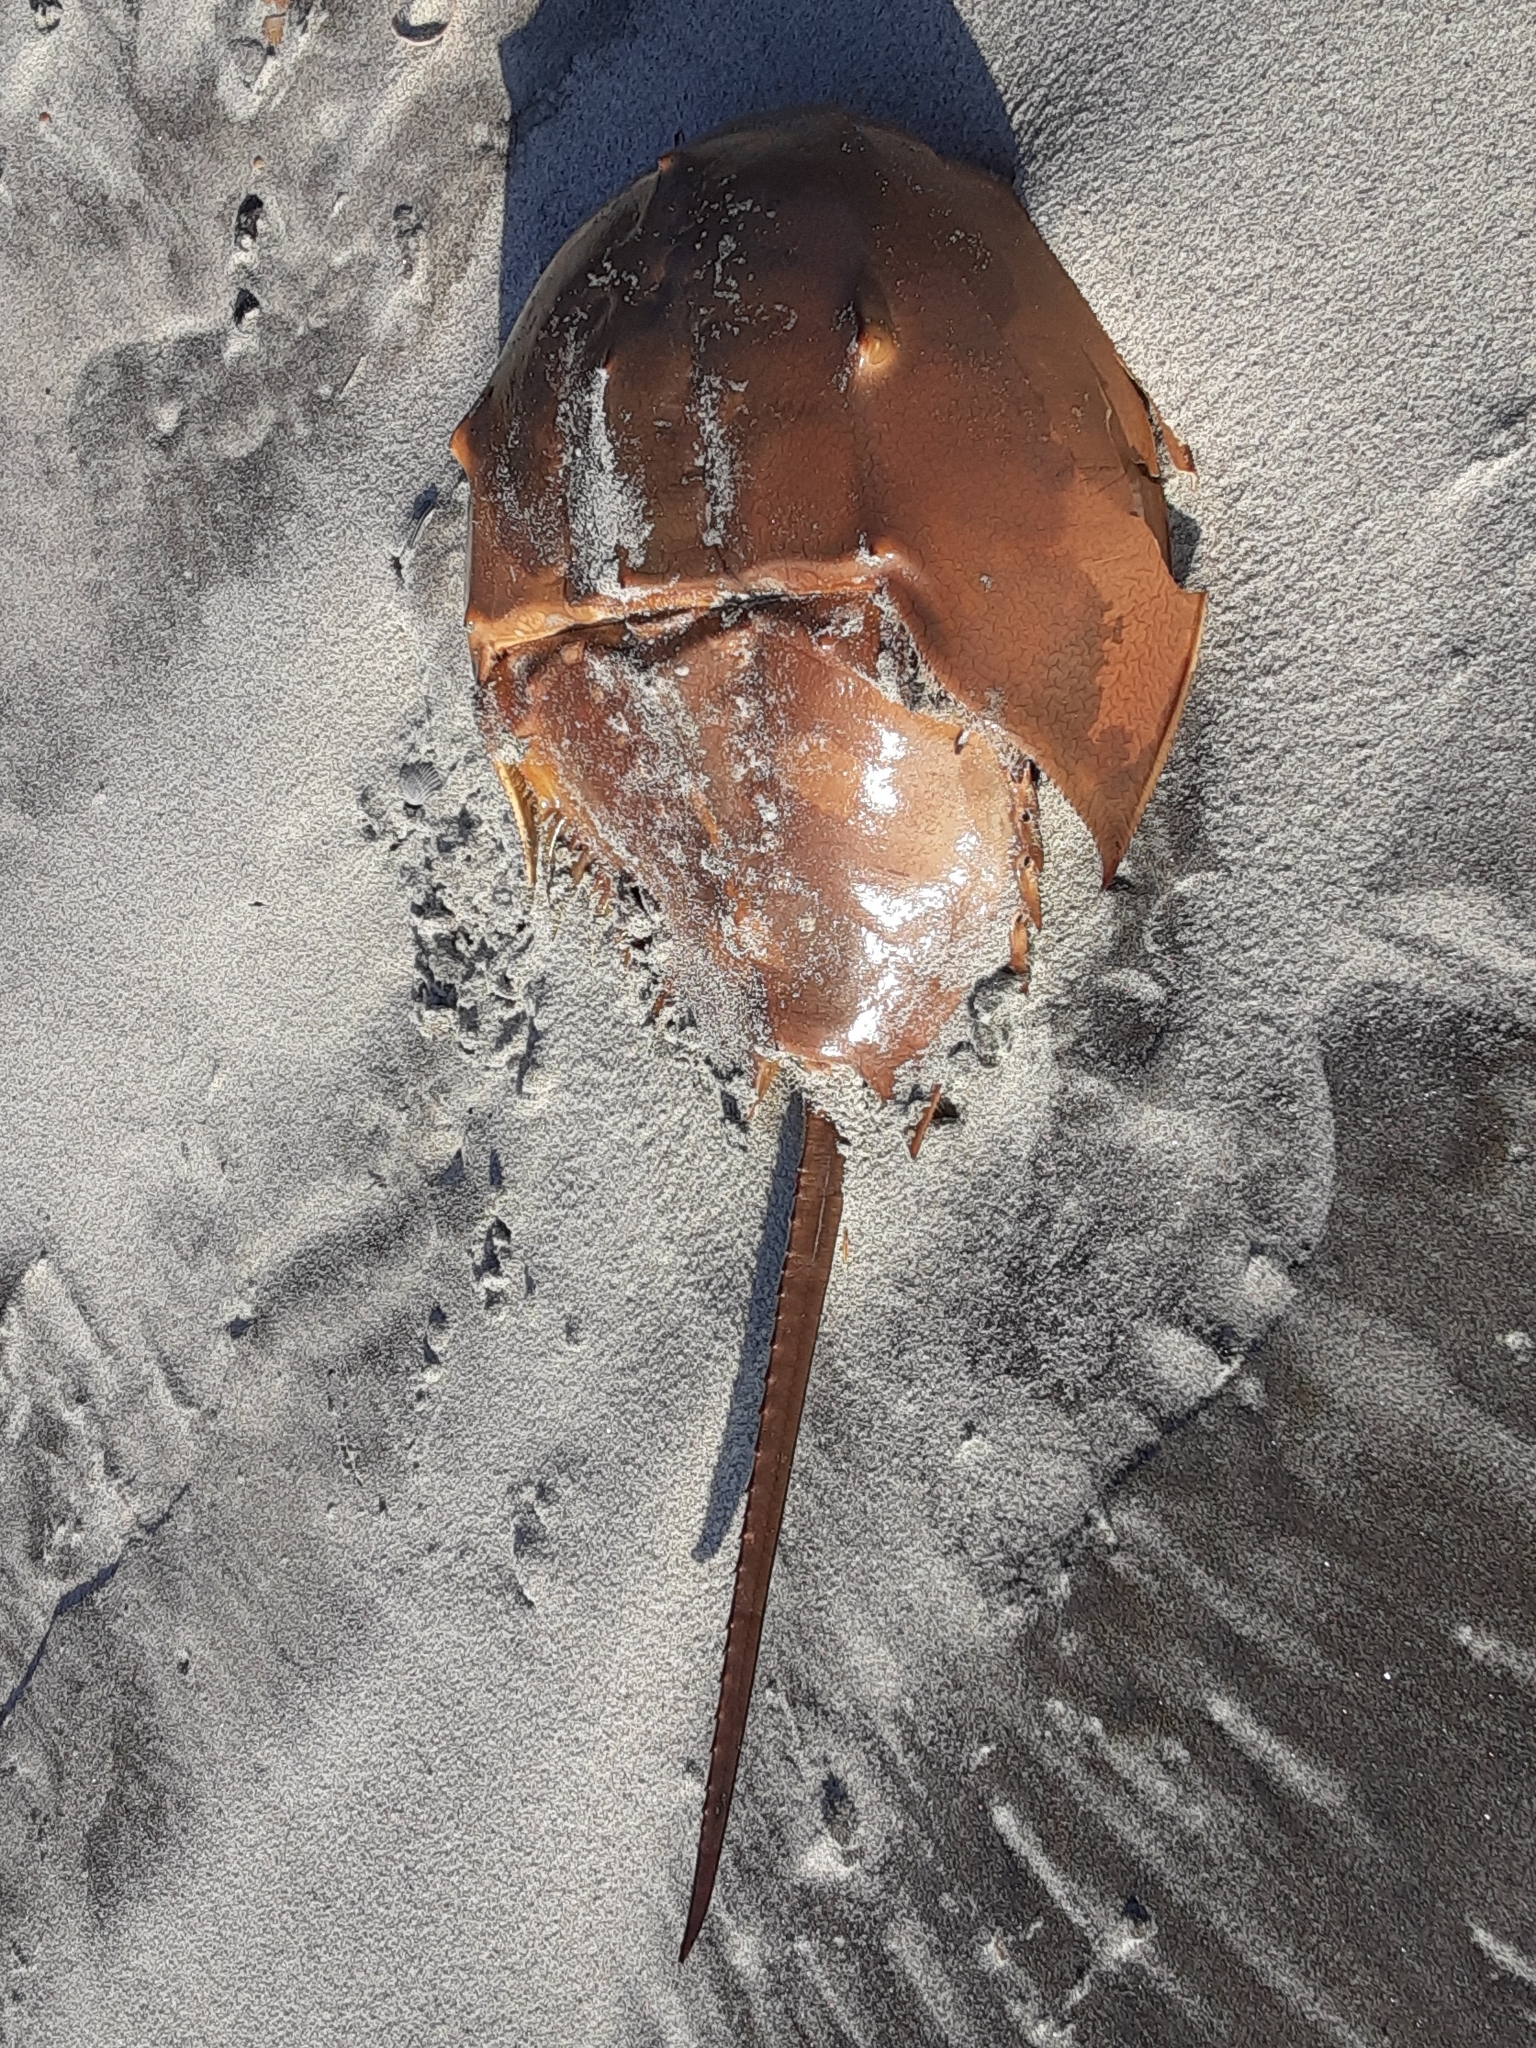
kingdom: Animalia
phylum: Arthropoda
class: Merostomata
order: Xiphosurida
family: Limulidae
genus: Limulus
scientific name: Limulus polyphemus
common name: Horseshoe crab
